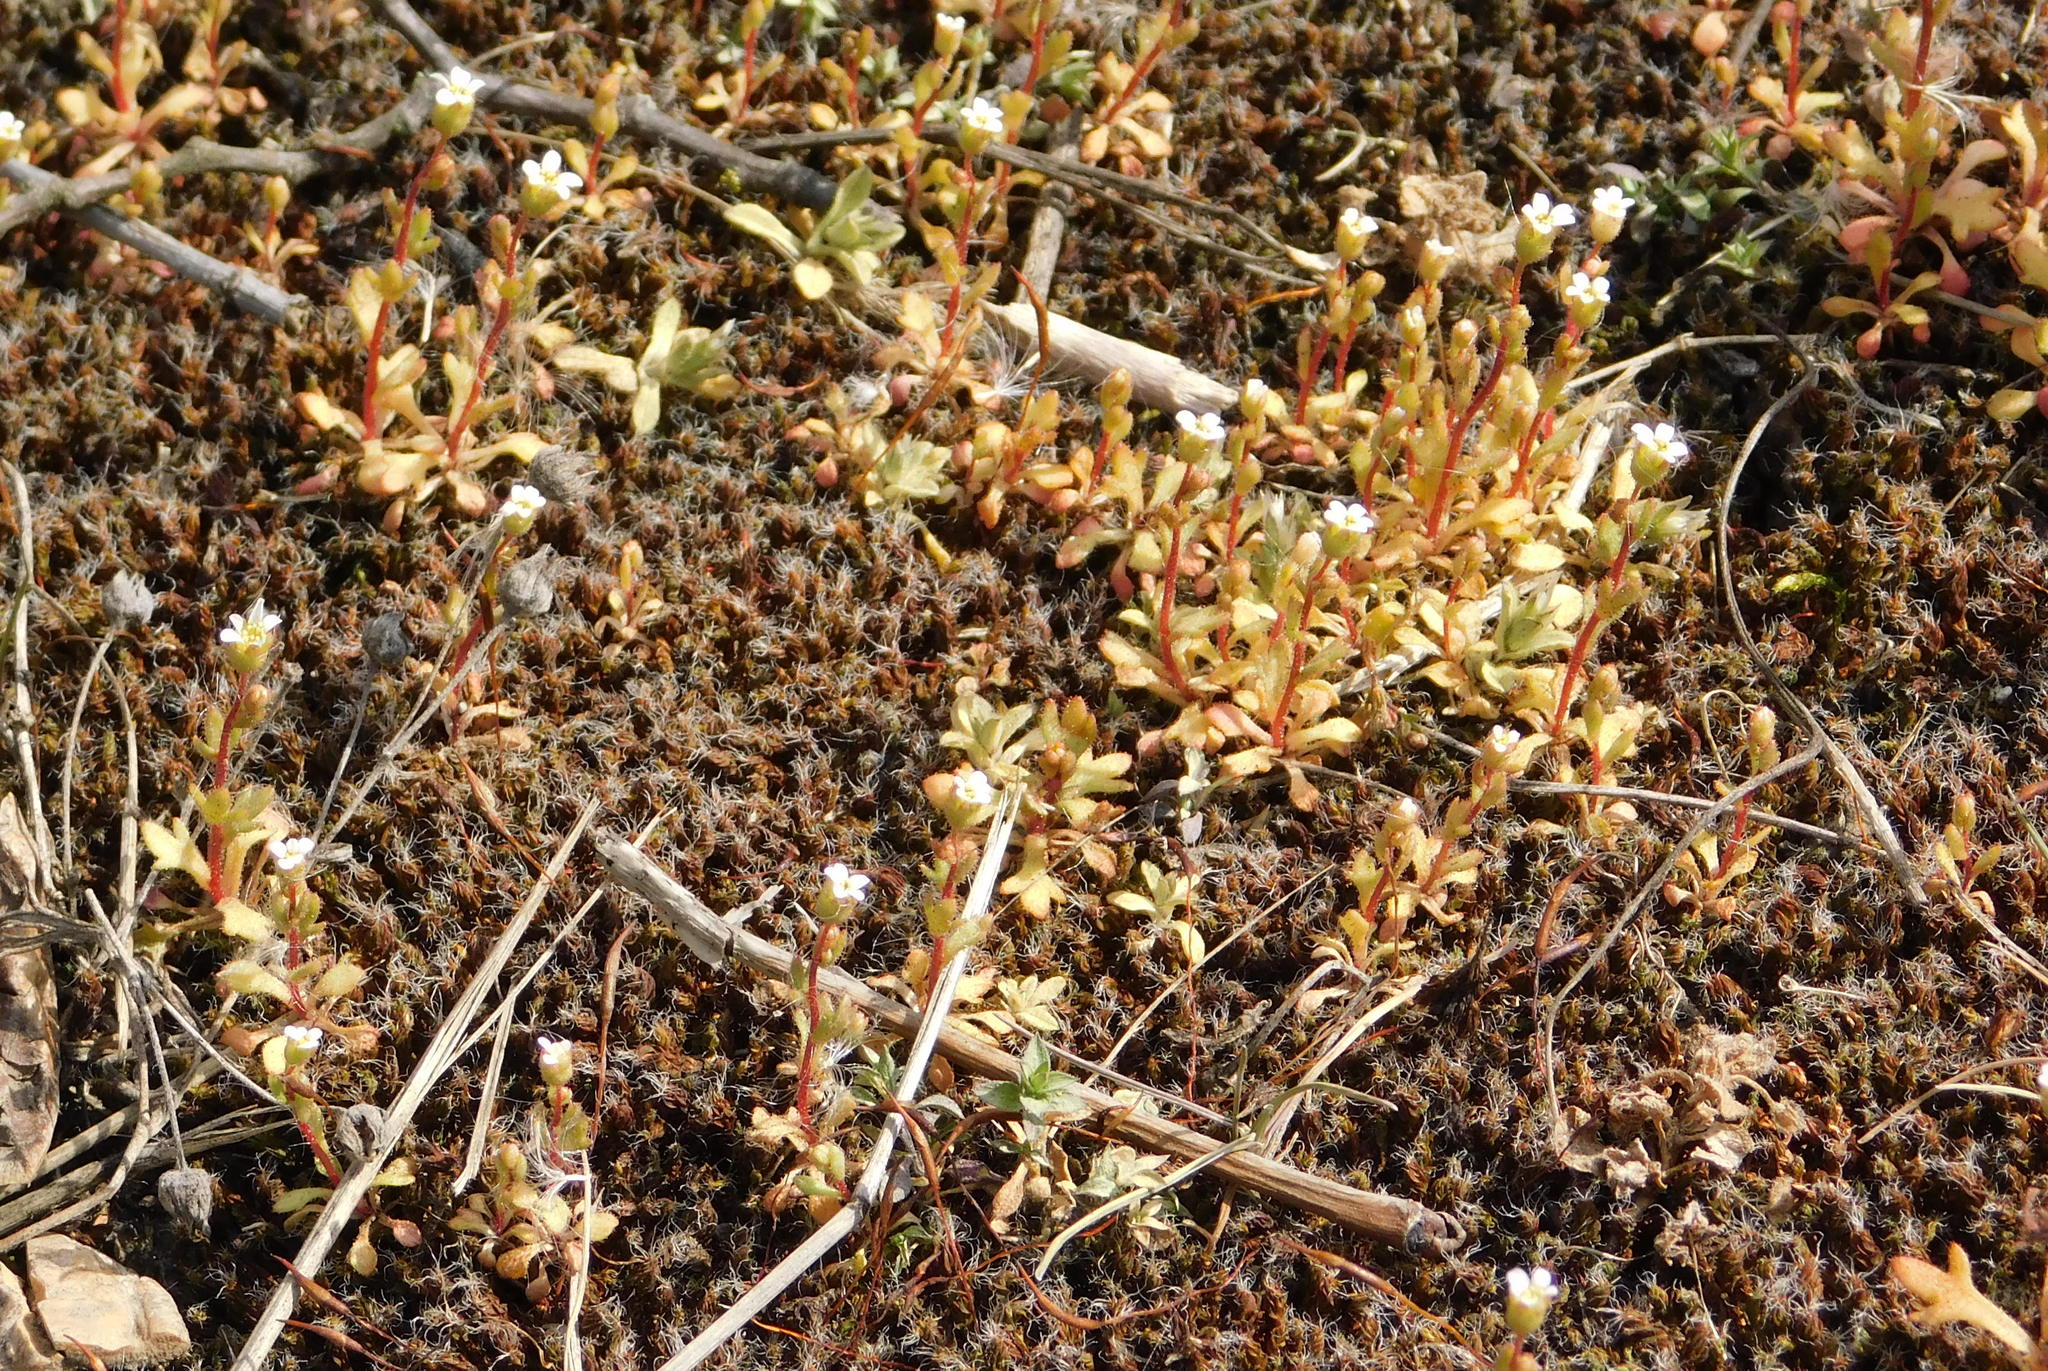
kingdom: Plantae
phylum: Tracheophyta
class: Magnoliopsida
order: Saxifragales
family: Saxifragaceae
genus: Saxifraga
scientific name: Saxifraga tridactylites
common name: Rue-leaved saxifrage
